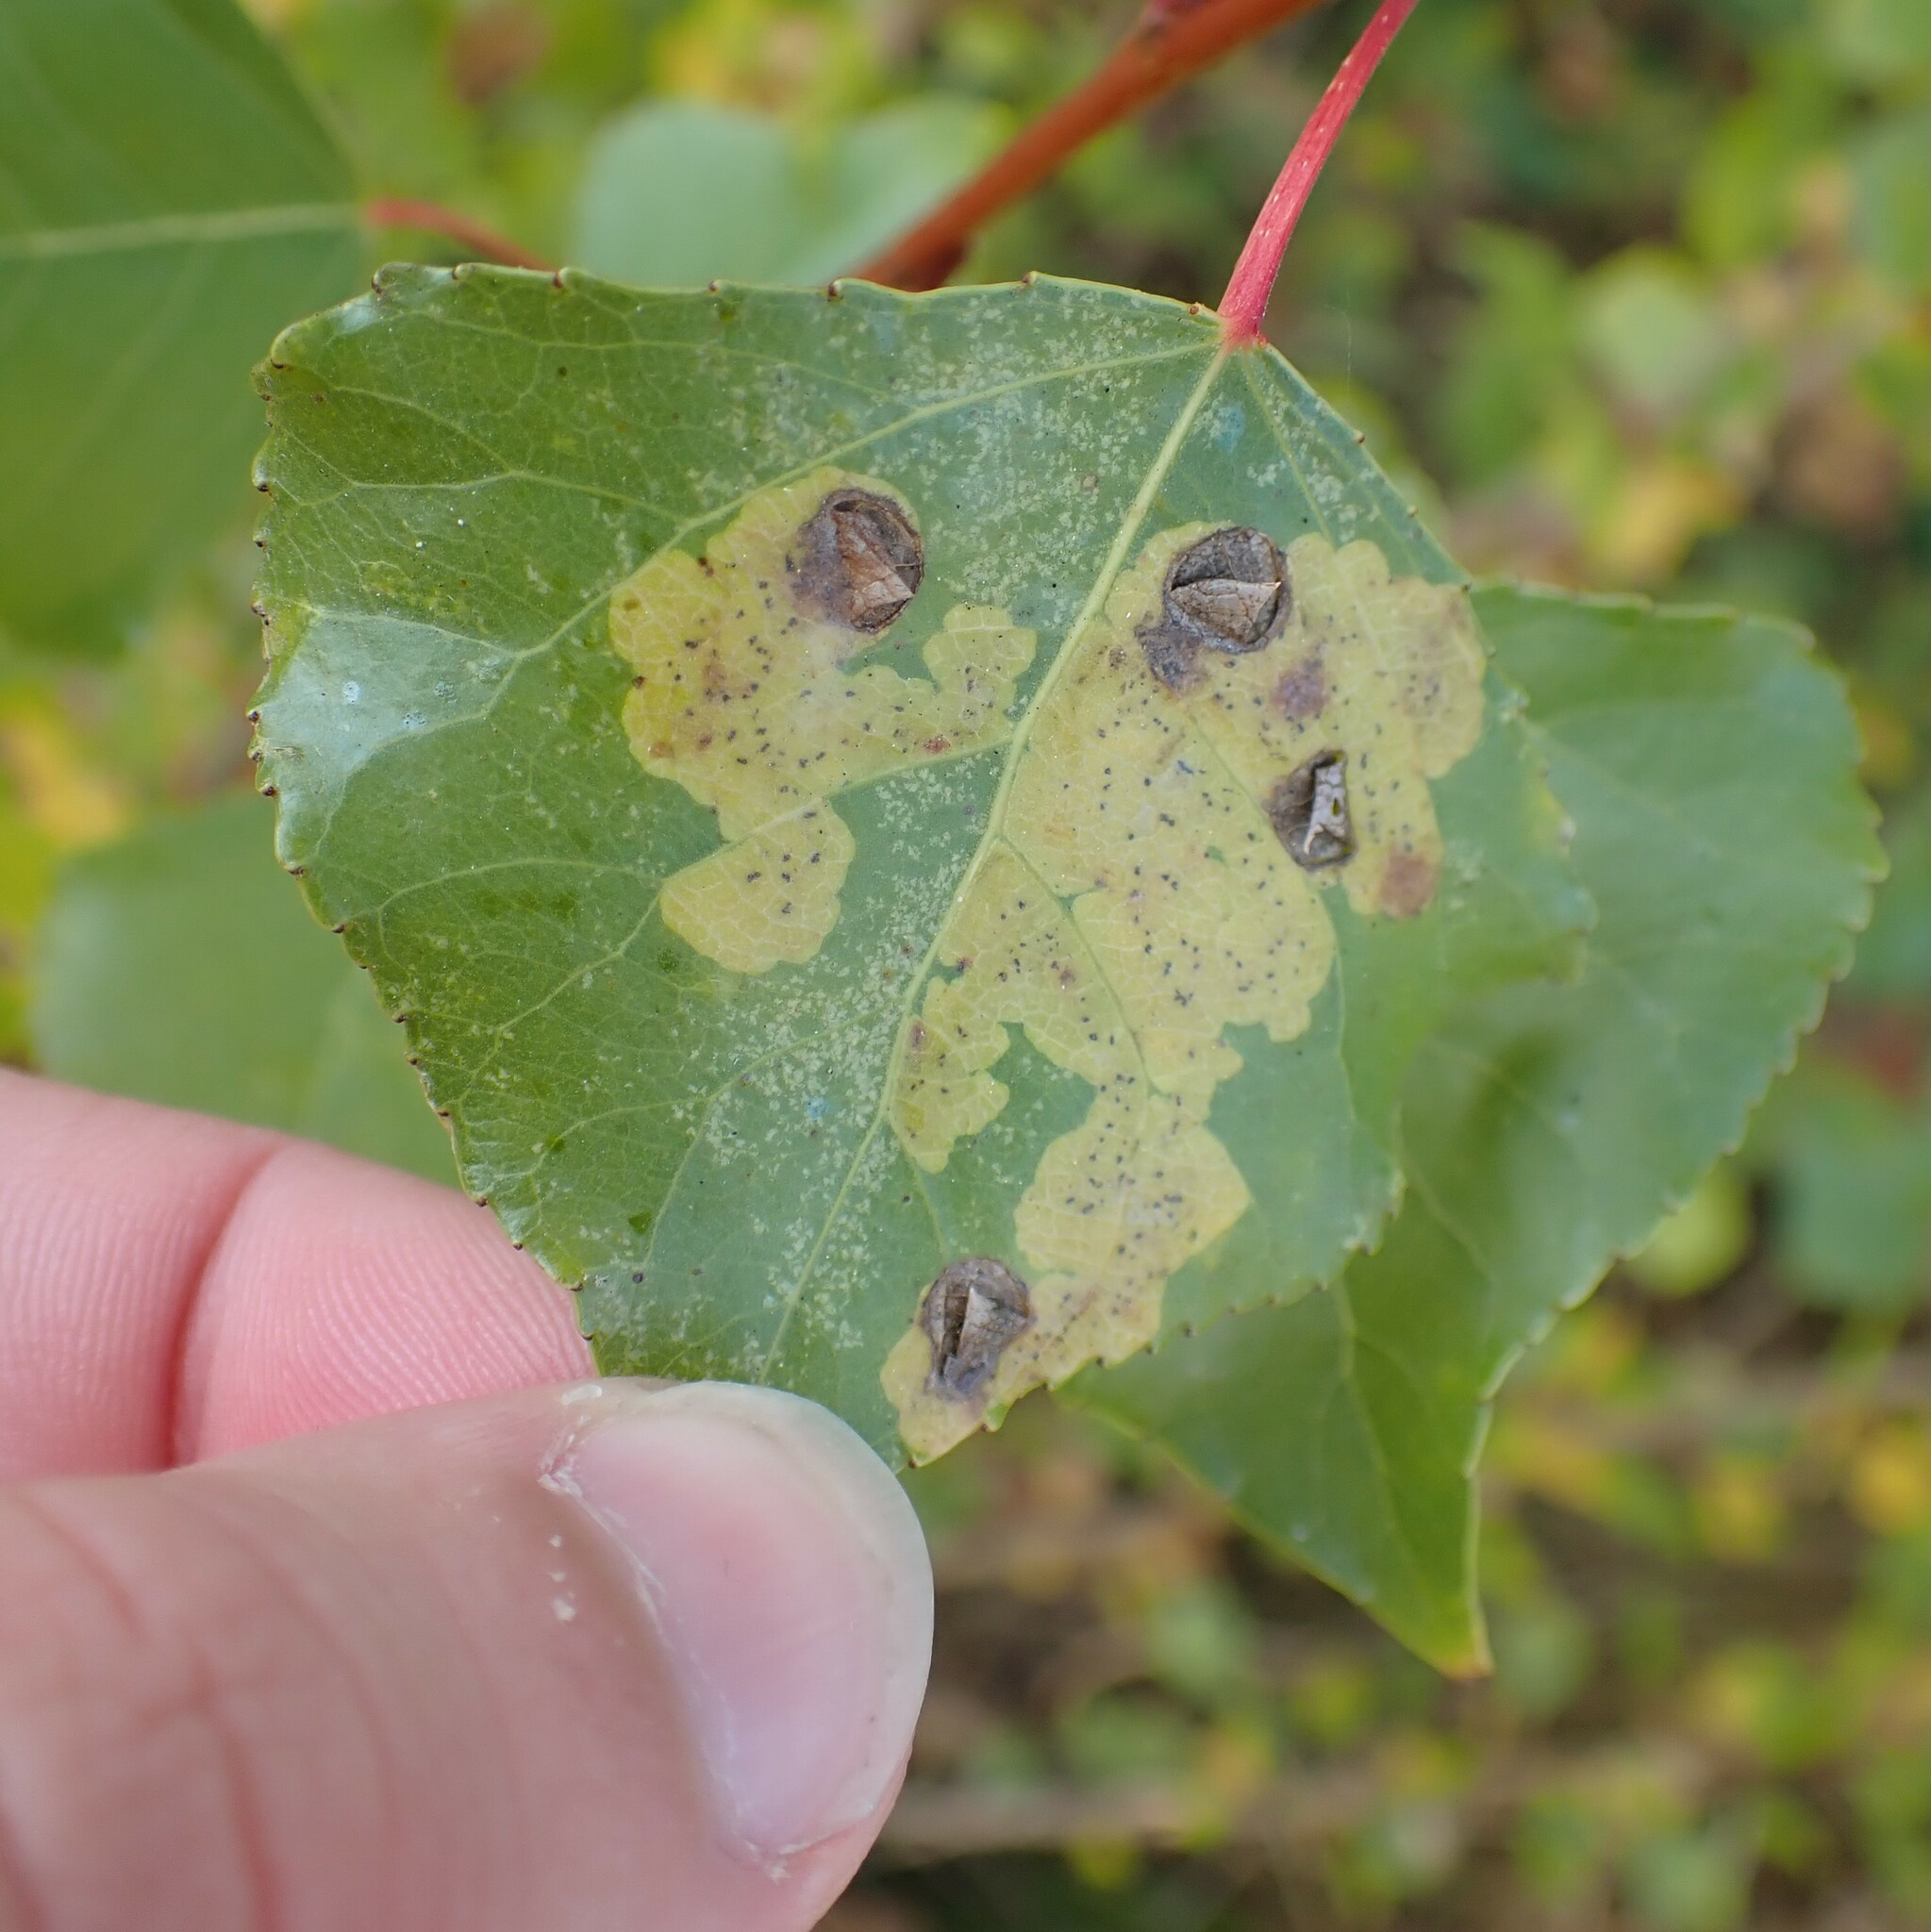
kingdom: Animalia
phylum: Arthropoda
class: Insecta
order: Diptera
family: Agromyzidae
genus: Aulagromyza
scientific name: Aulagromyza populicola
